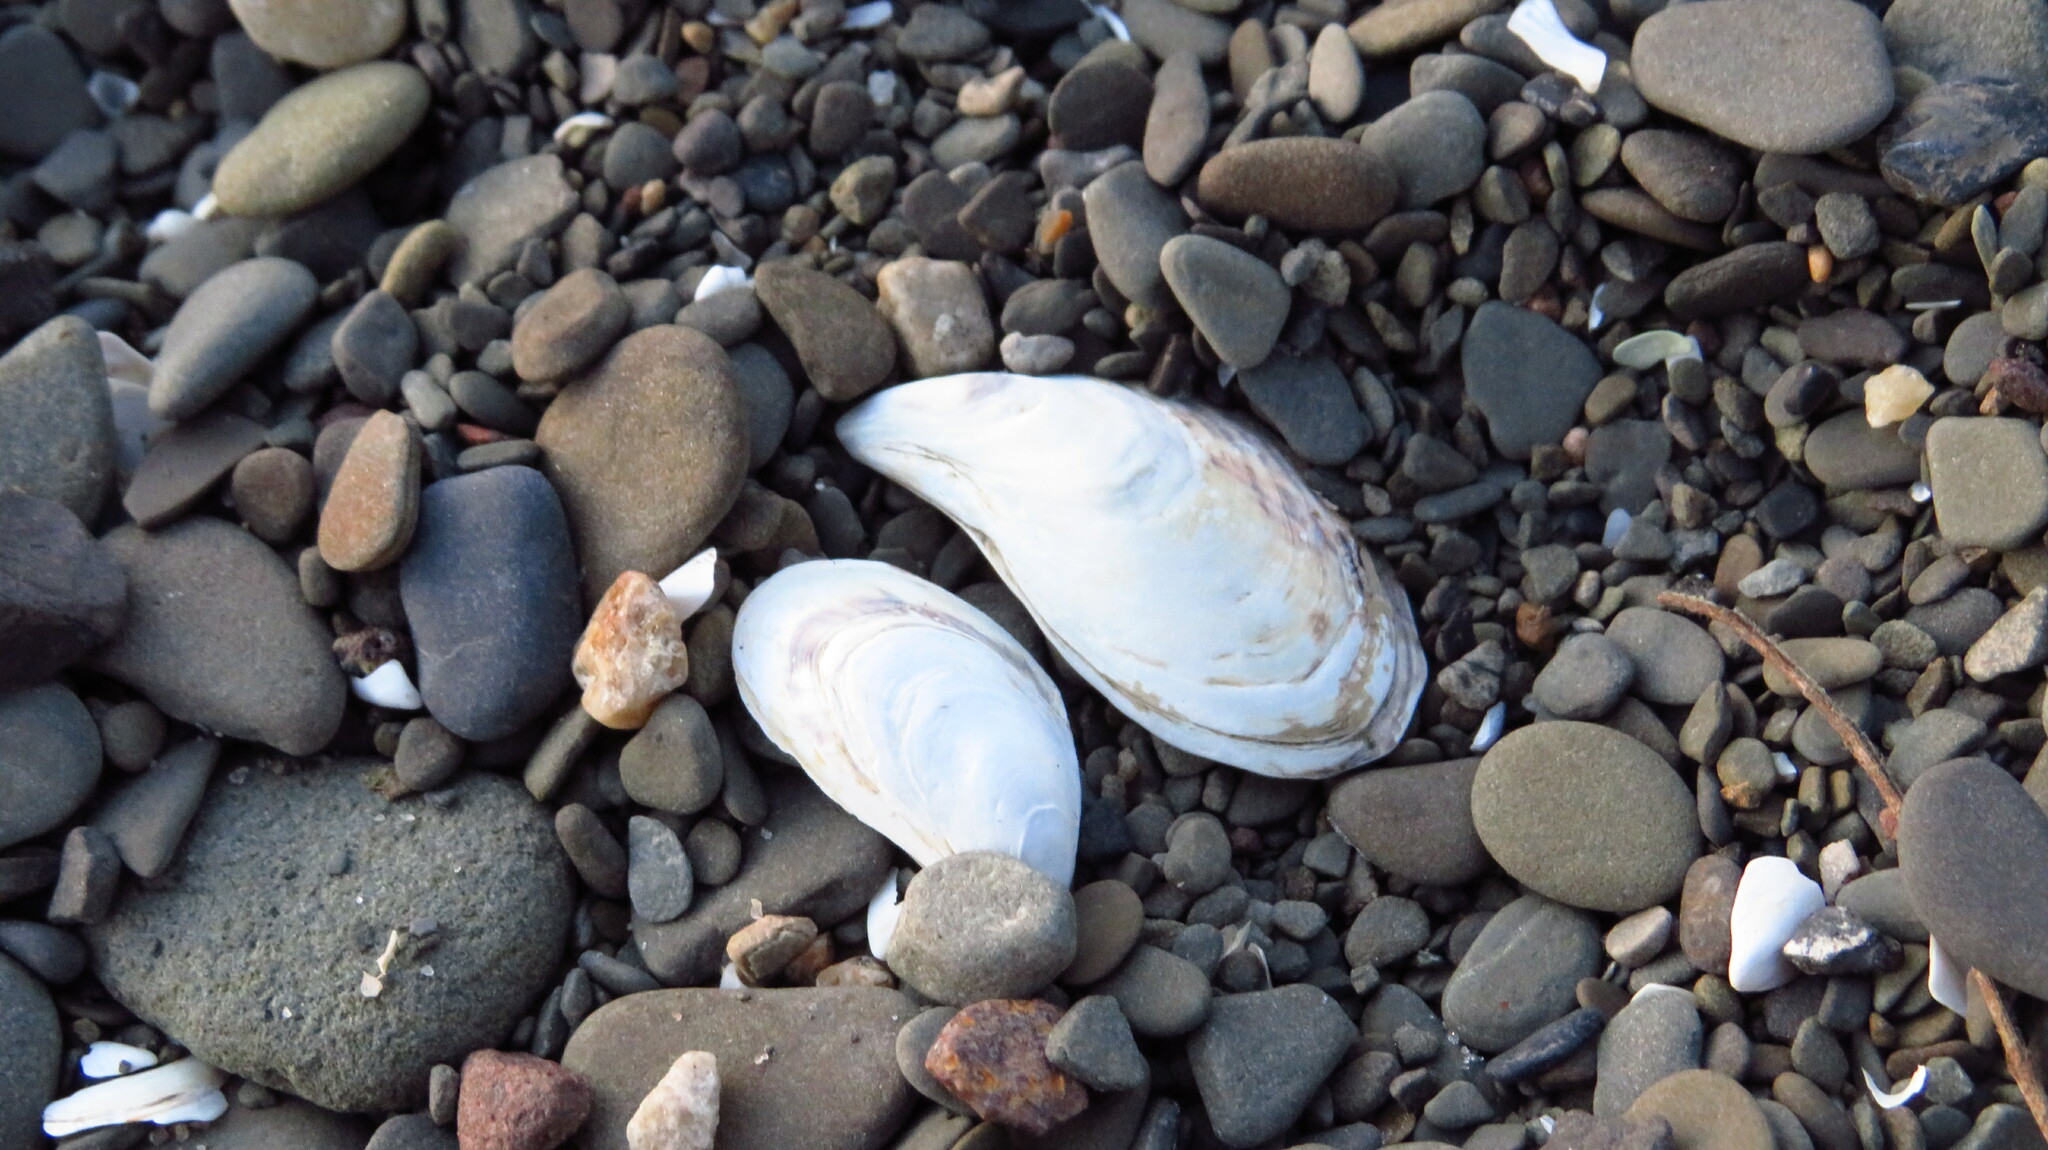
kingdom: Animalia
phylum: Mollusca
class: Bivalvia
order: Myida
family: Dreissenidae
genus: Dreissena
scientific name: Dreissena bugensis
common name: Quagga mussel
